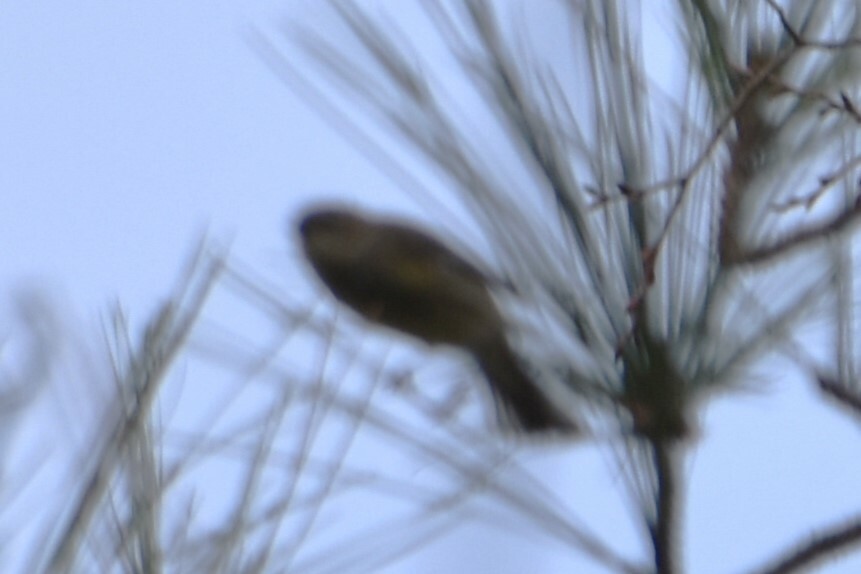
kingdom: Animalia
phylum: Chordata
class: Aves
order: Passeriformes
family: Parulidae
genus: Setophaga
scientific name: Setophaga coronata
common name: Myrtle warbler
